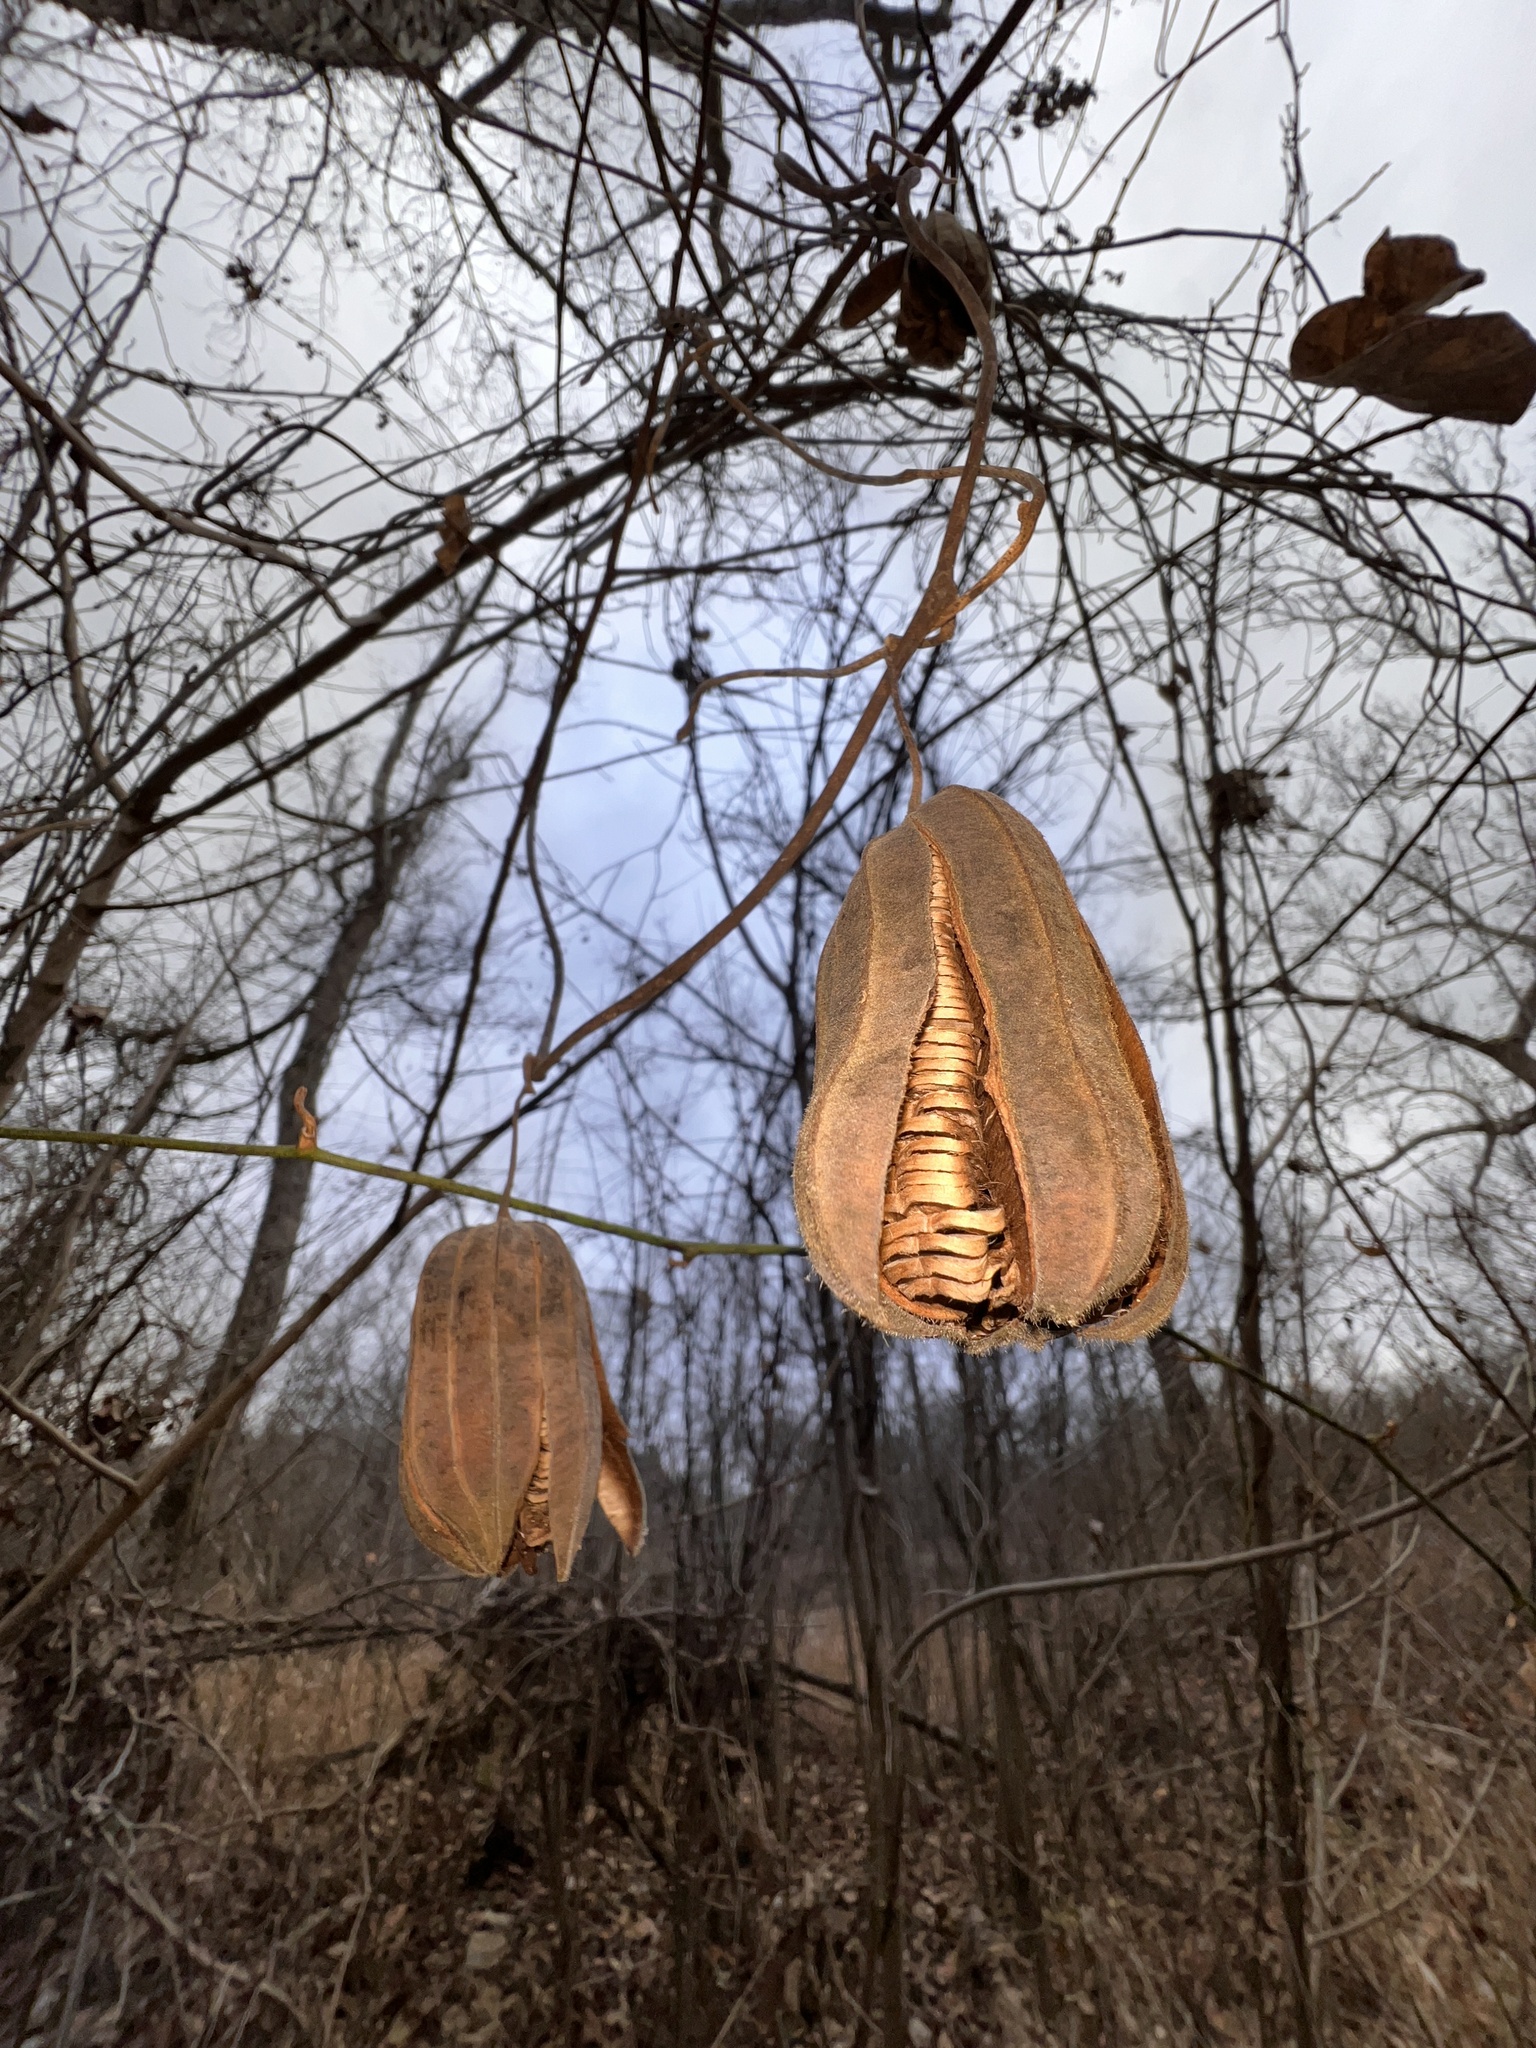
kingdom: Plantae
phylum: Tracheophyta
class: Magnoliopsida
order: Piperales
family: Aristolochiaceae
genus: Isotrema
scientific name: Isotrema tomentosum
